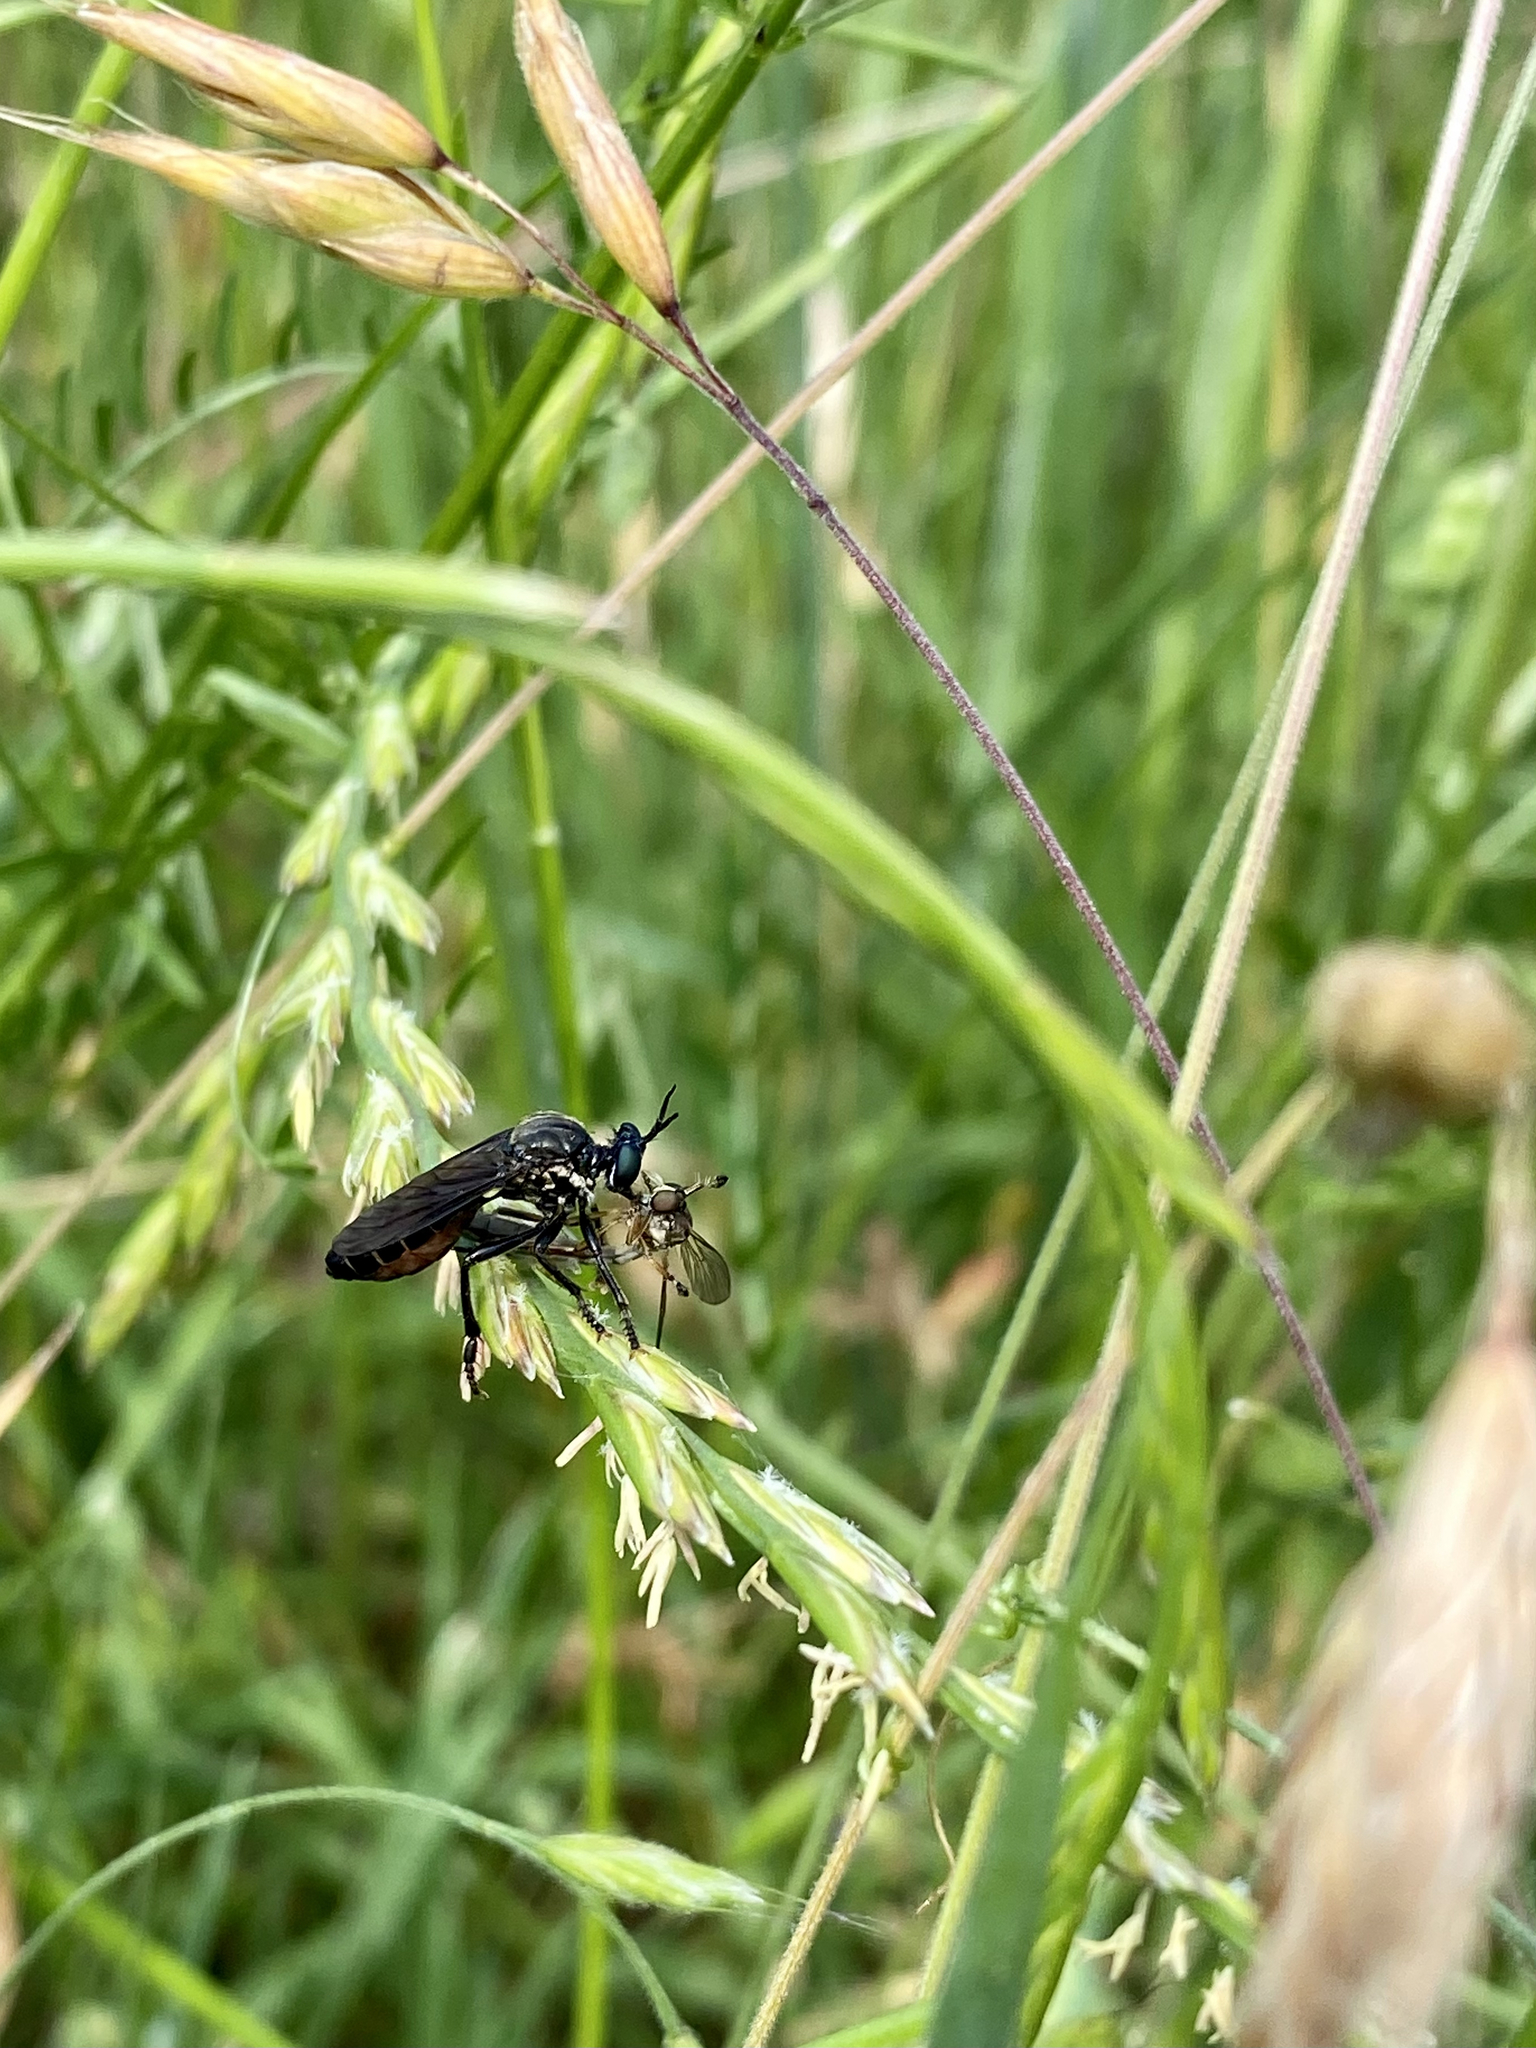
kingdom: Animalia
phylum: Arthropoda
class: Insecta
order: Diptera
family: Asilidae
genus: Dioctria
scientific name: Dioctria atricapilla
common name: Violet black-legged
